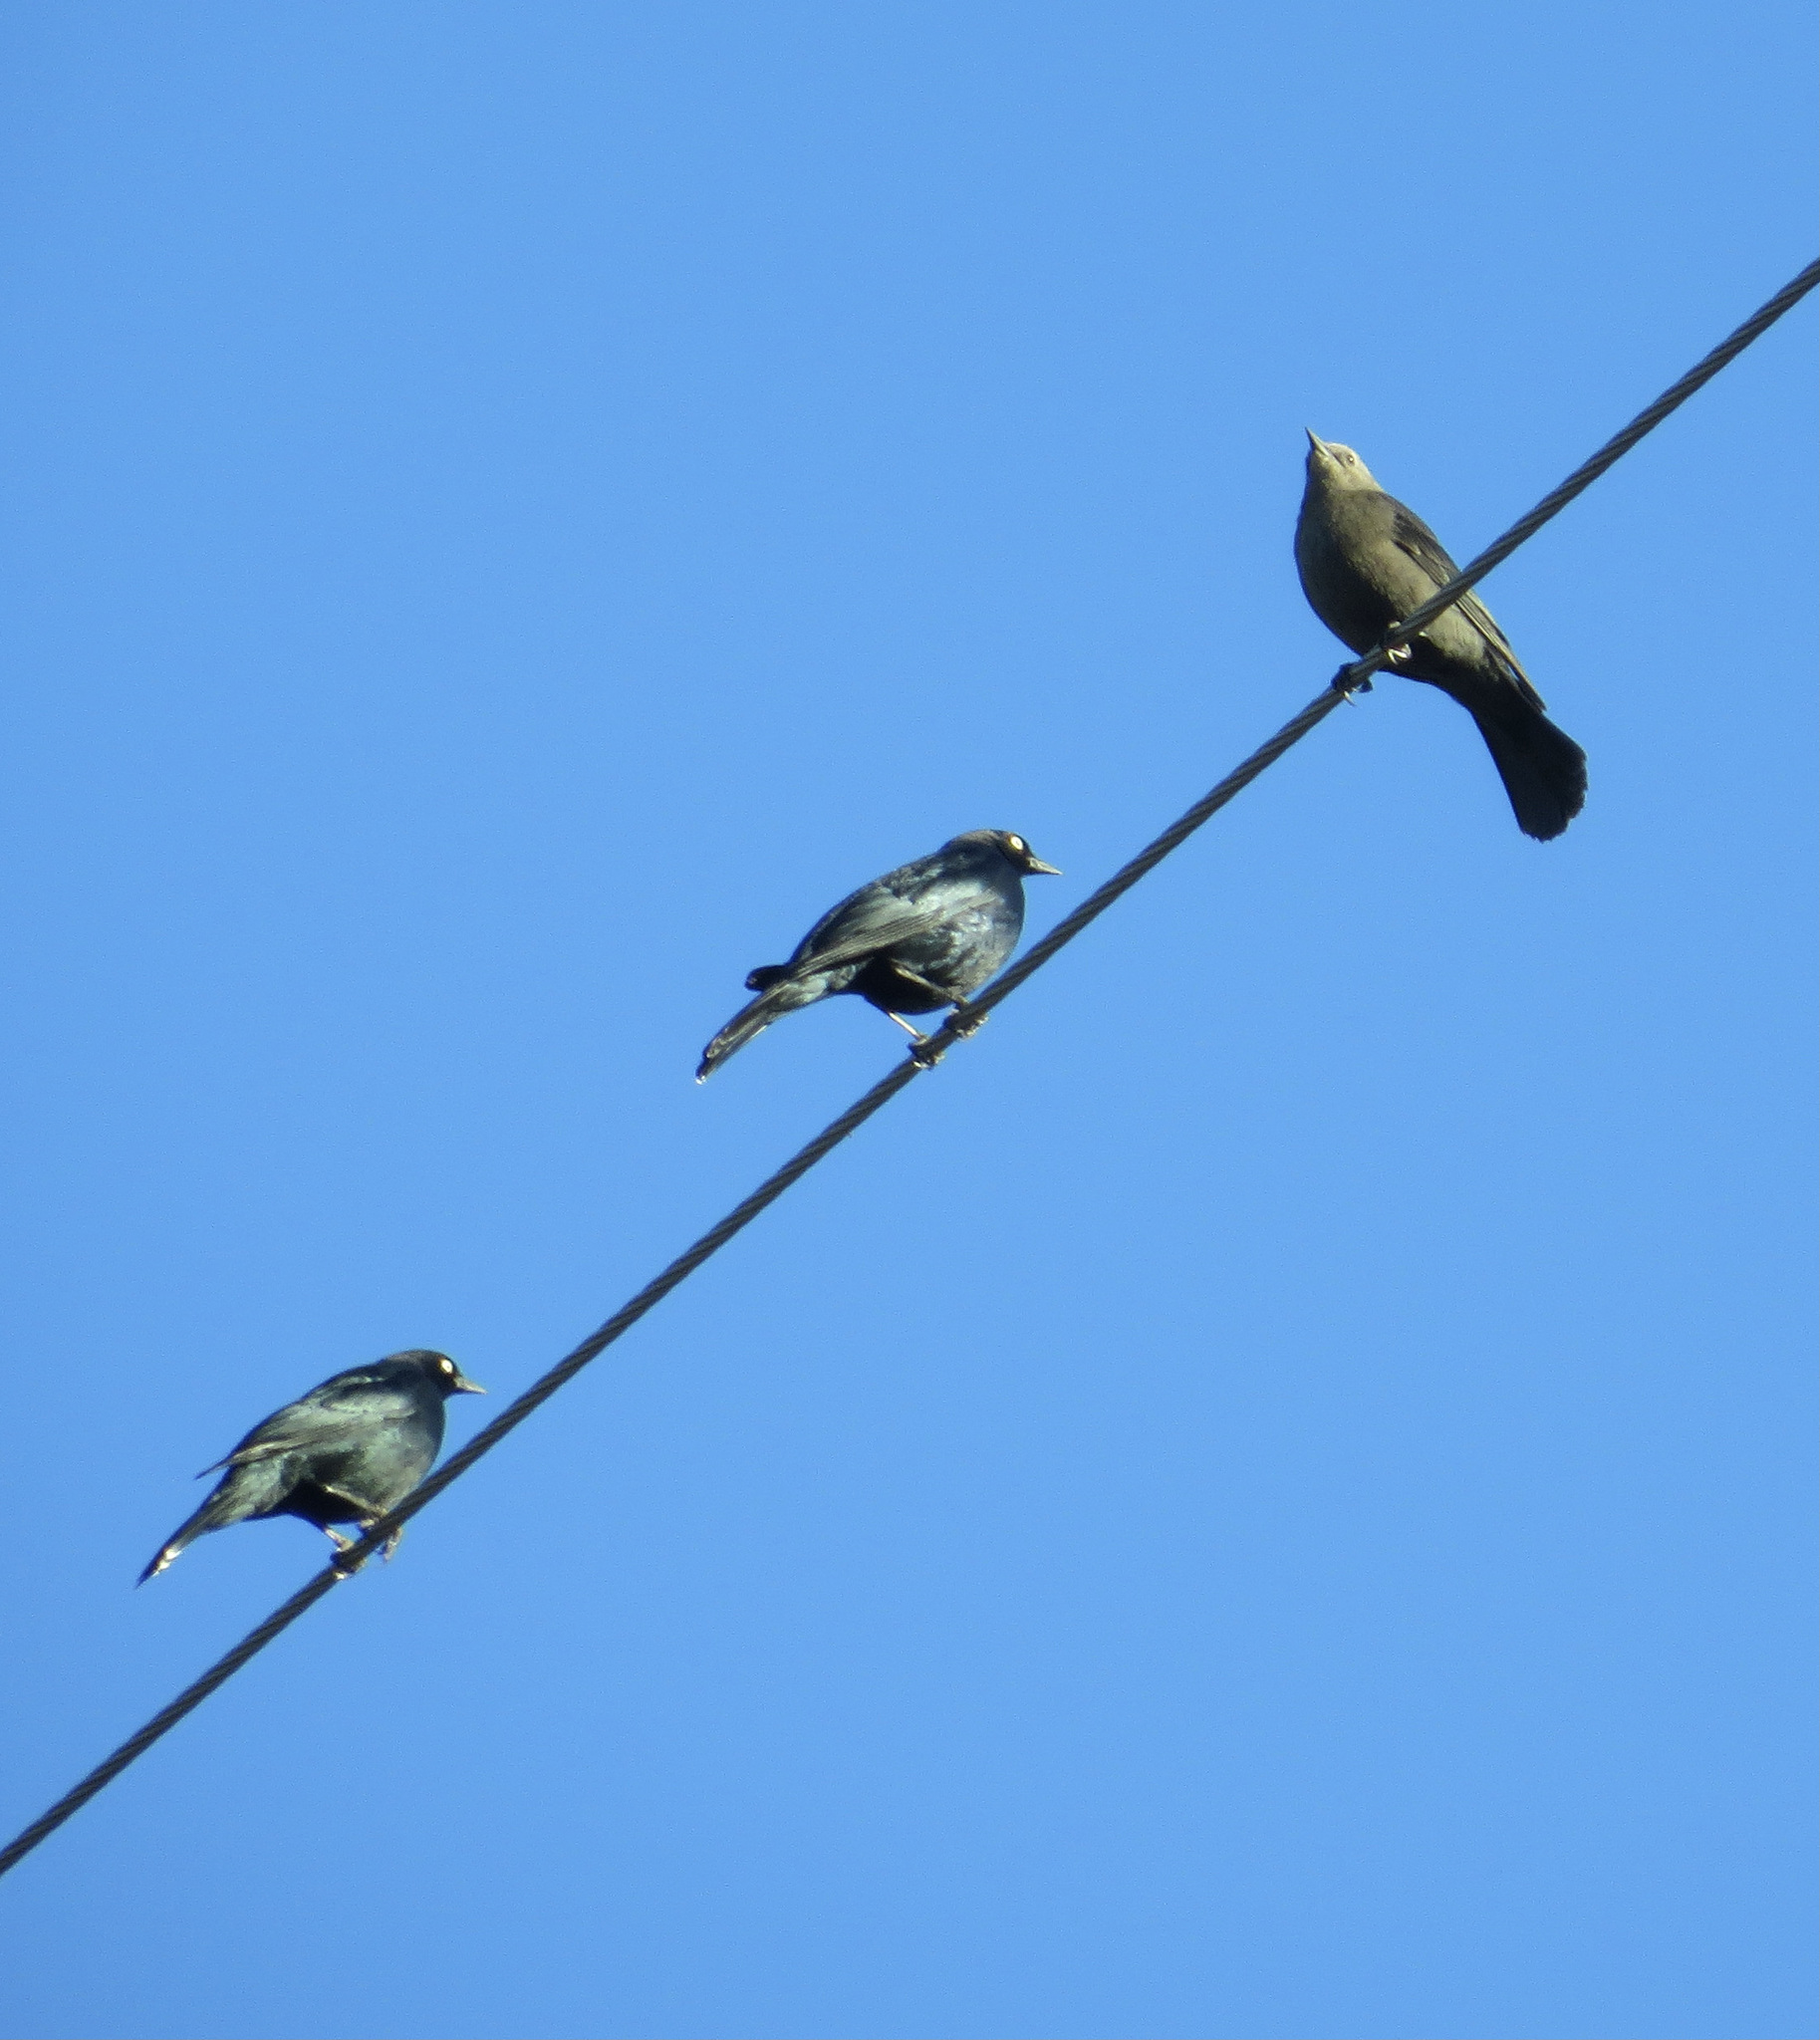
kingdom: Animalia
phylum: Chordata
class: Aves
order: Passeriformes
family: Icteridae
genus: Euphagus
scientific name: Euphagus cyanocephalus
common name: Brewer's blackbird
